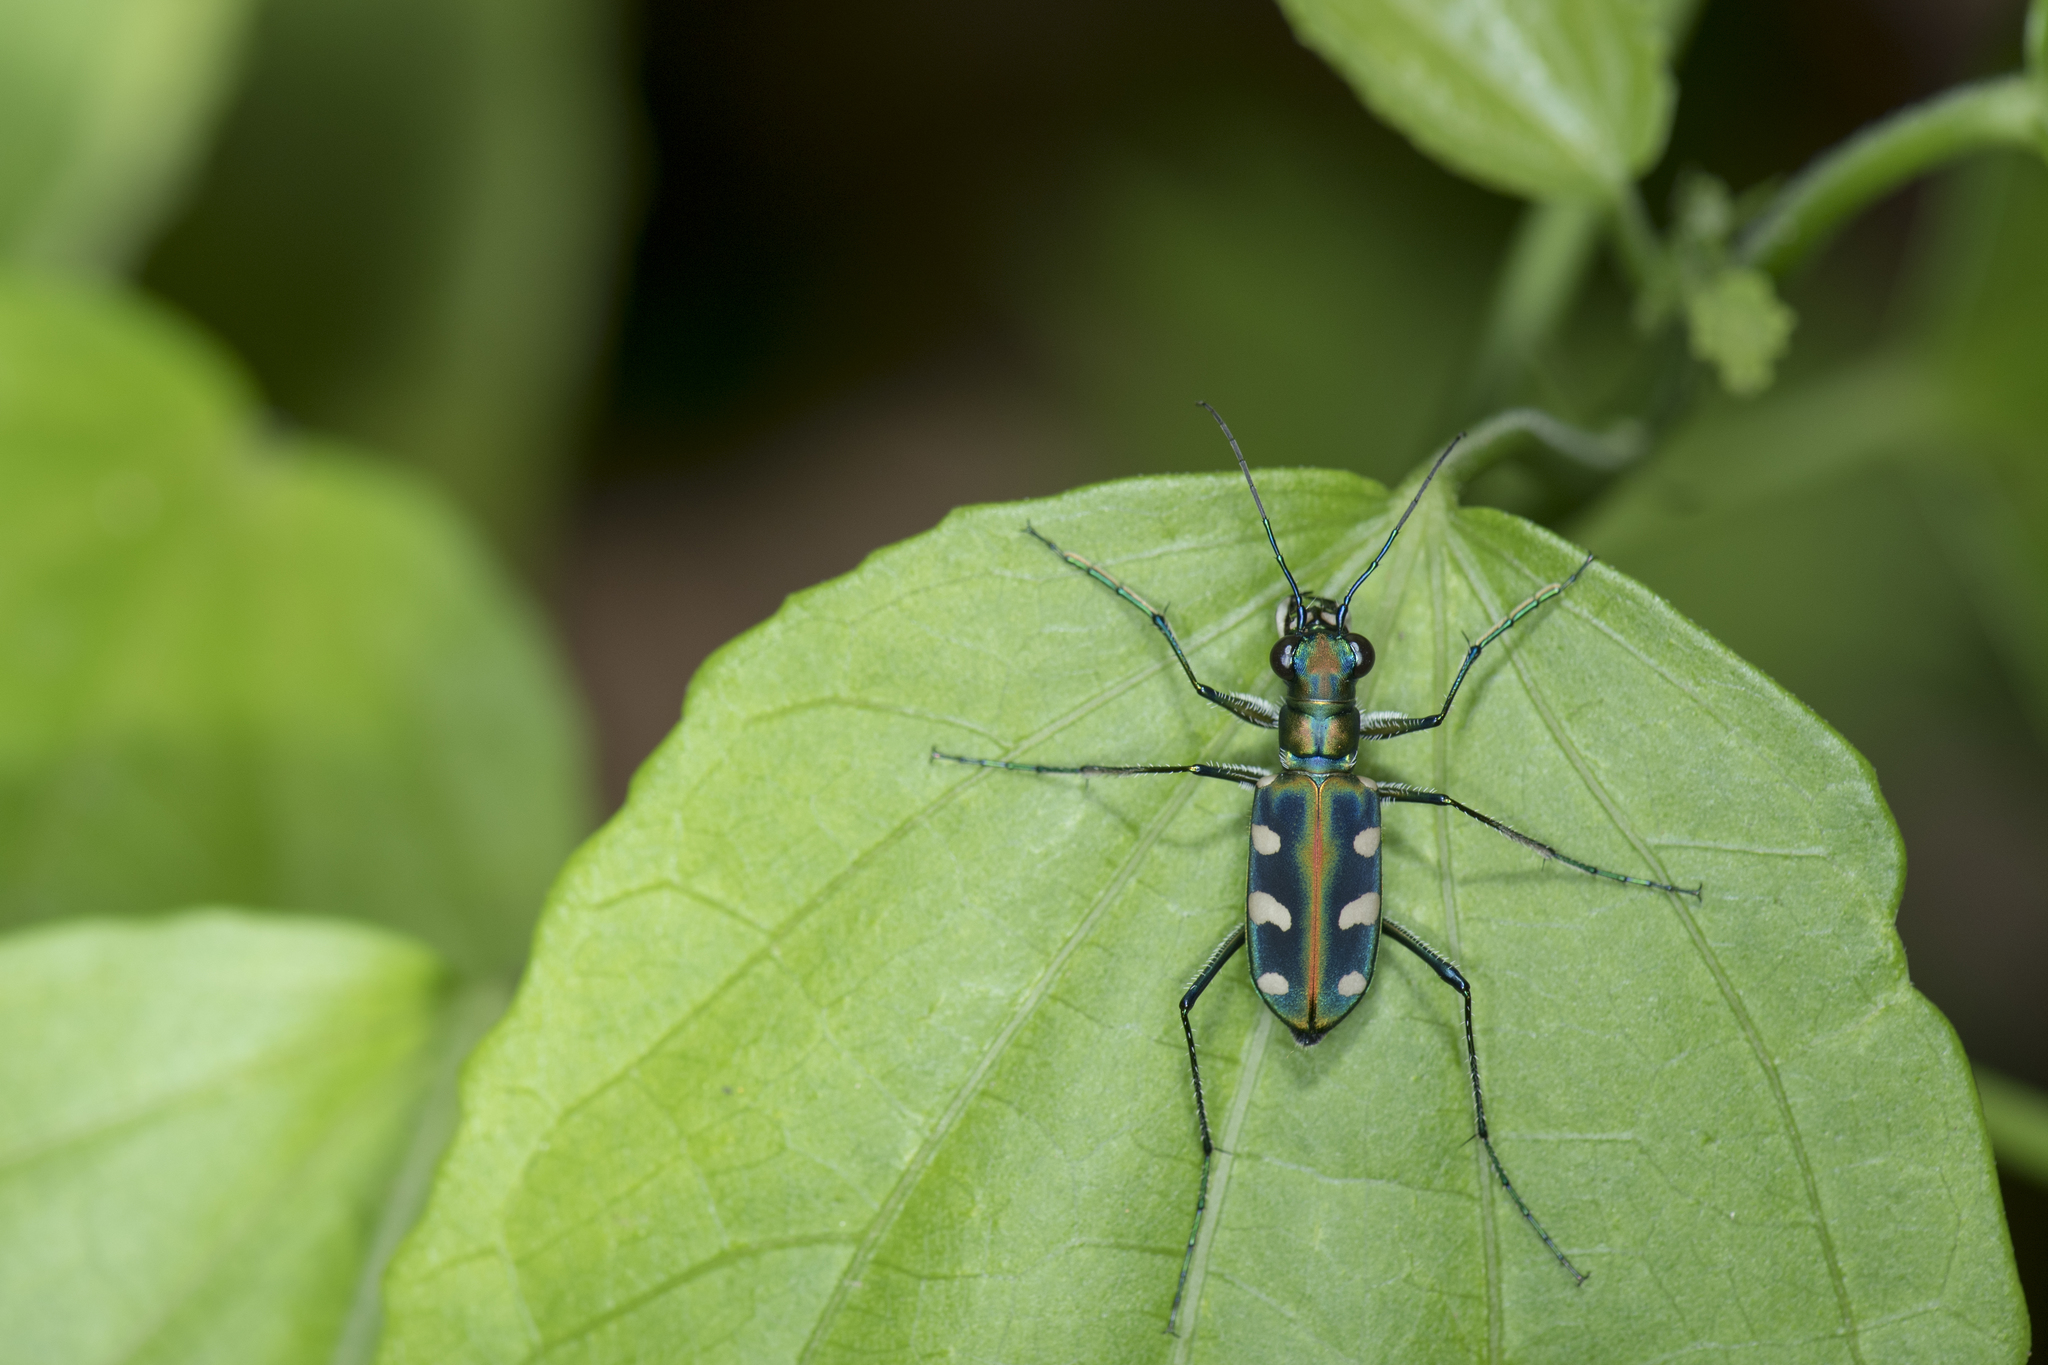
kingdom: Animalia
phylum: Arthropoda
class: Insecta
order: Coleoptera
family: Carabidae
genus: Cicindela
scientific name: Cicindela batesi
